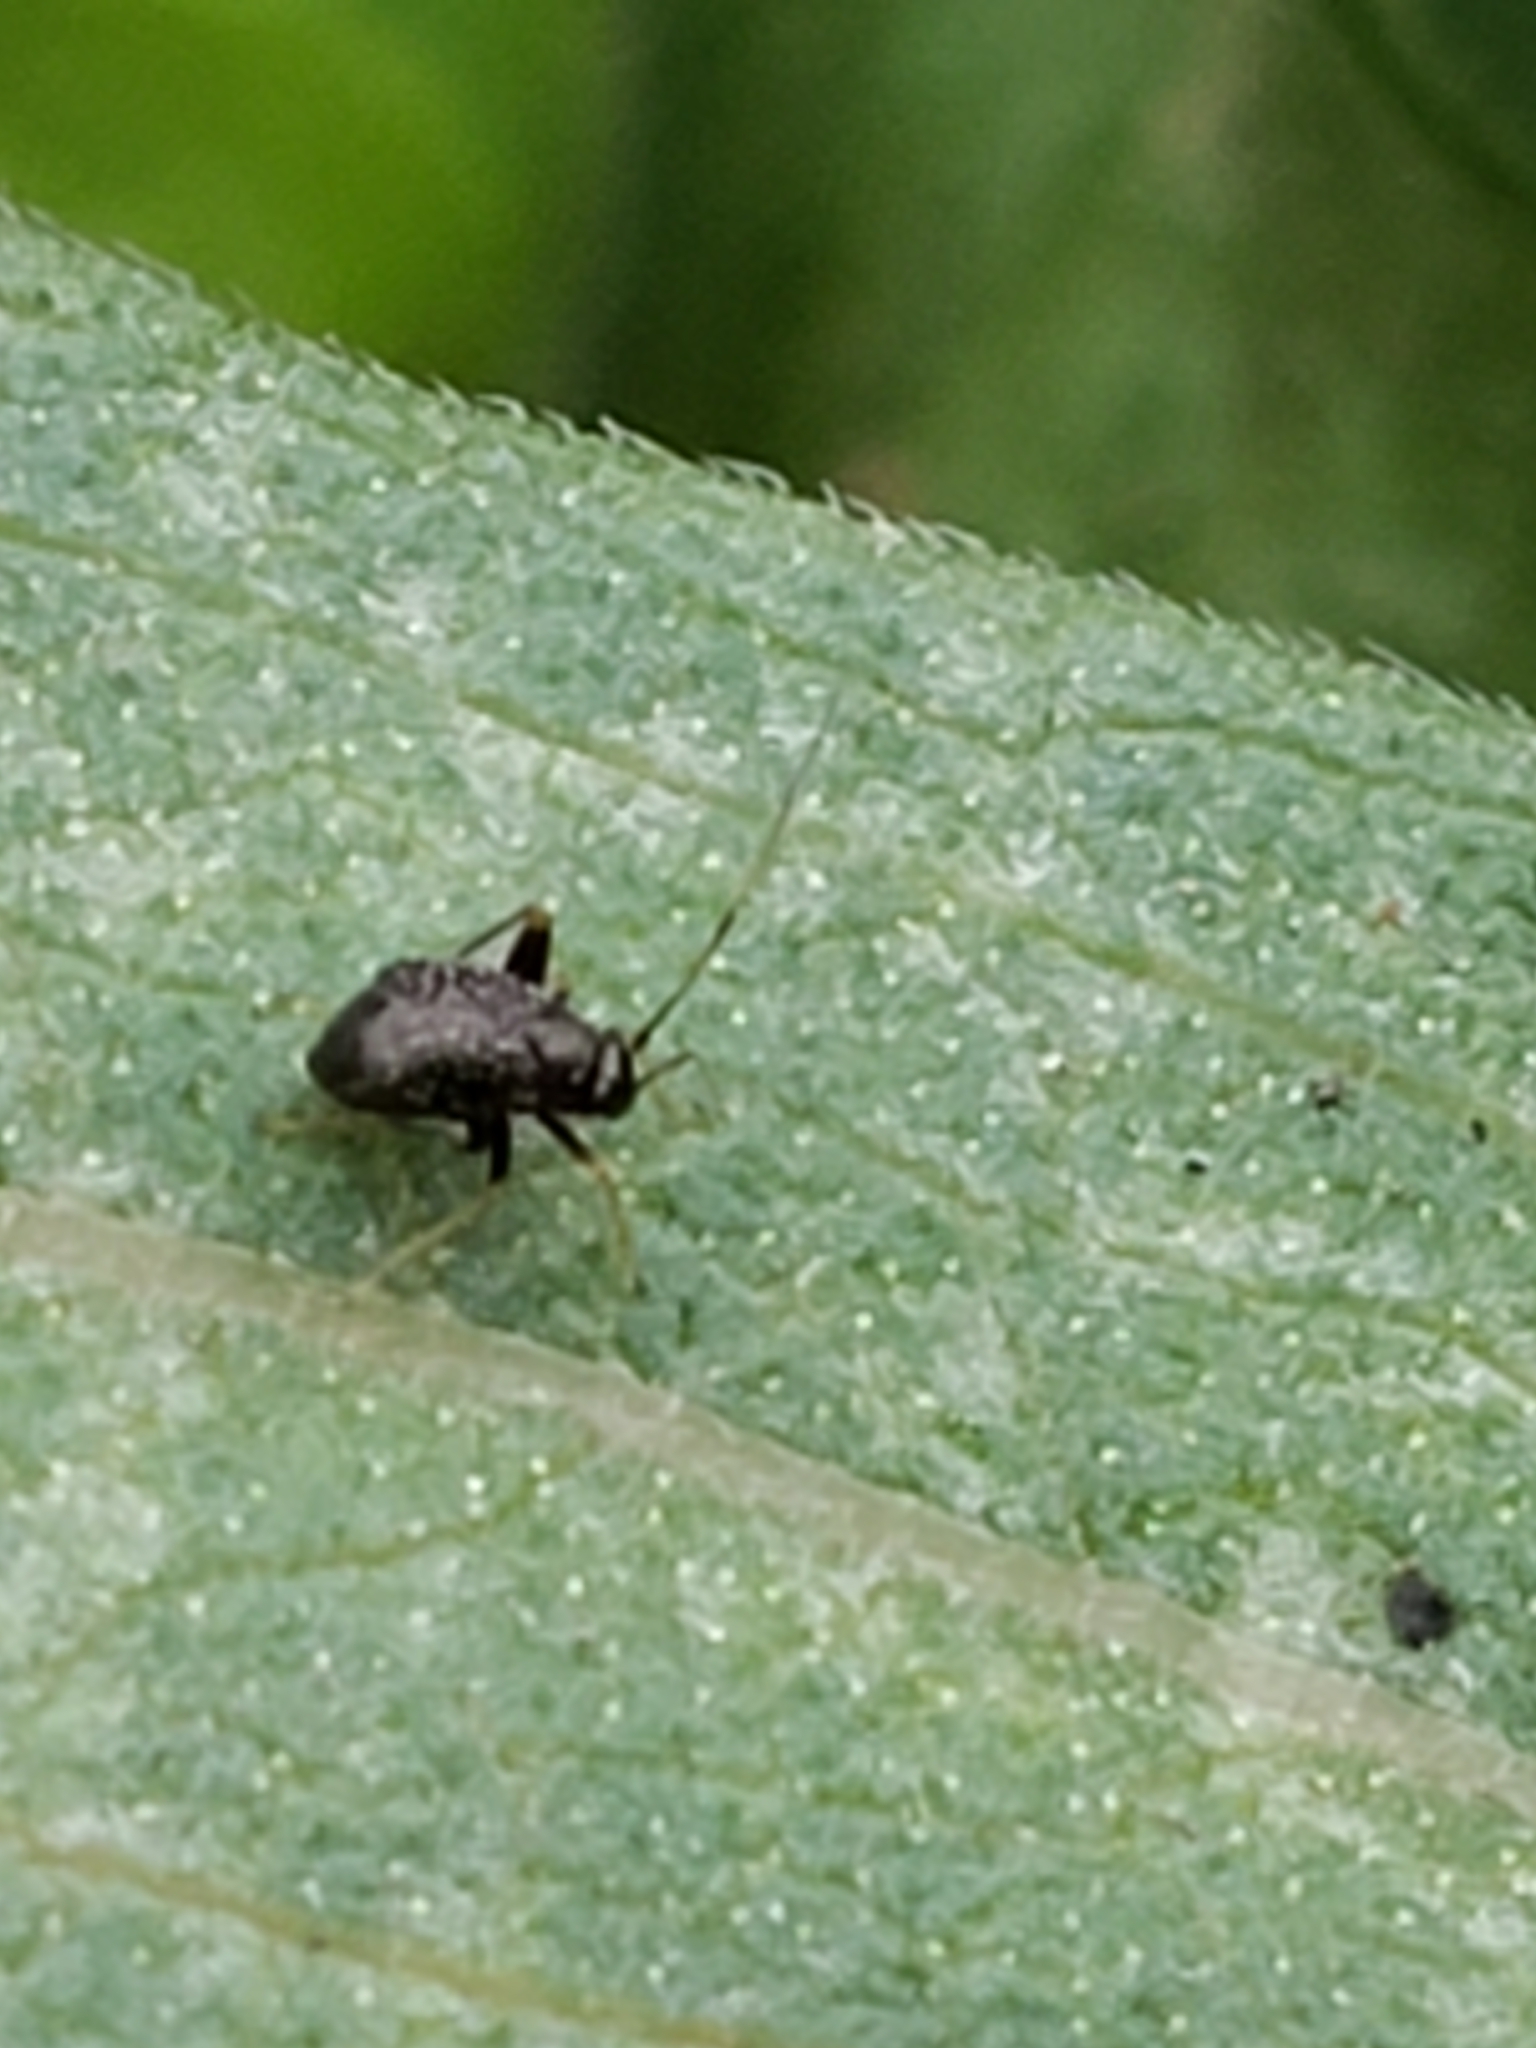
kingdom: Animalia
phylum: Arthropoda
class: Insecta
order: Hemiptera
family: Miridae
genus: Microtechnites
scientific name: Microtechnites bractatus
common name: Garden fleahopper
